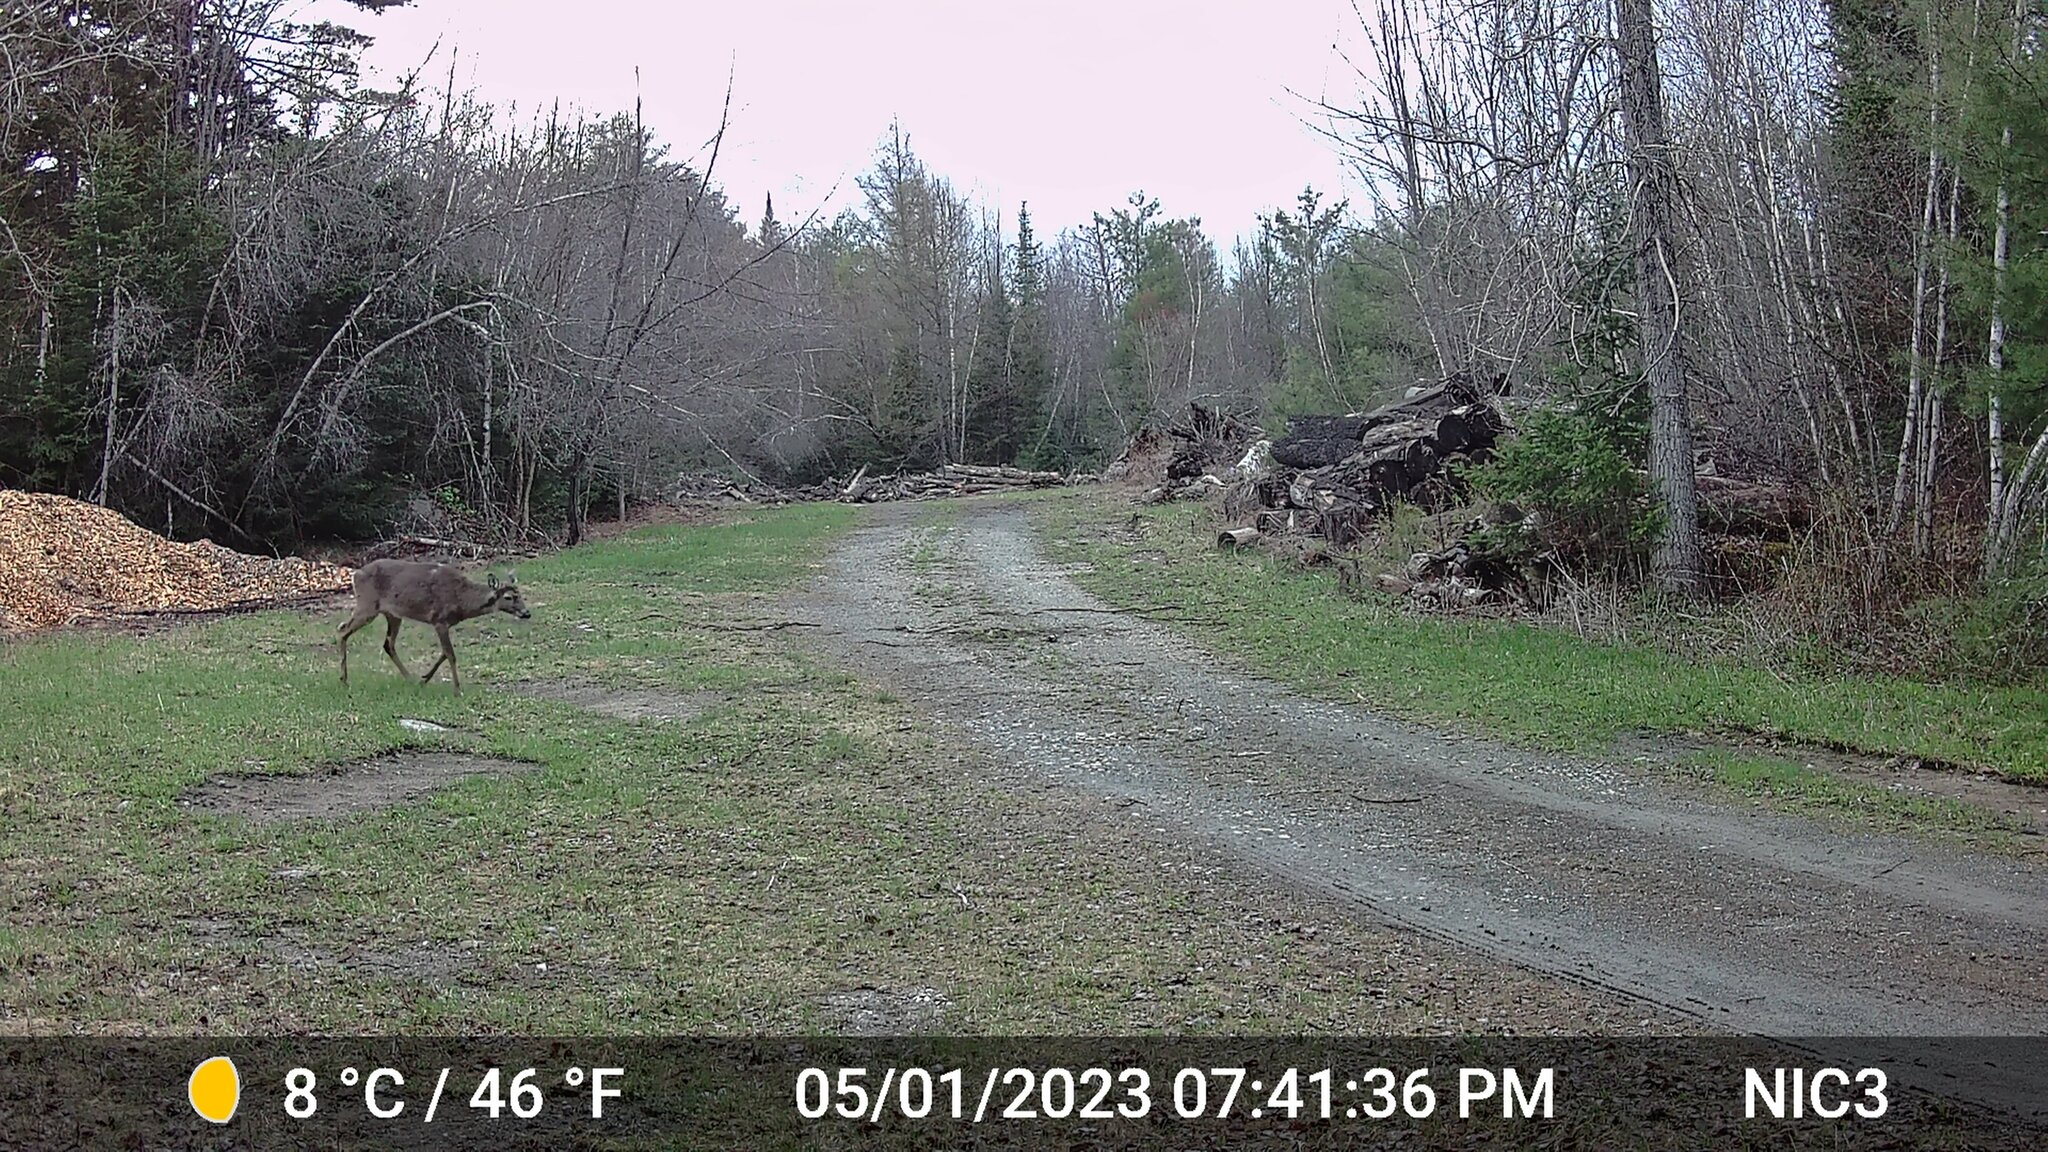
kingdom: Animalia
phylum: Chordata
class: Mammalia
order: Artiodactyla
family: Cervidae
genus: Odocoileus
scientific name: Odocoileus virginianus
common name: White-tailed deer
